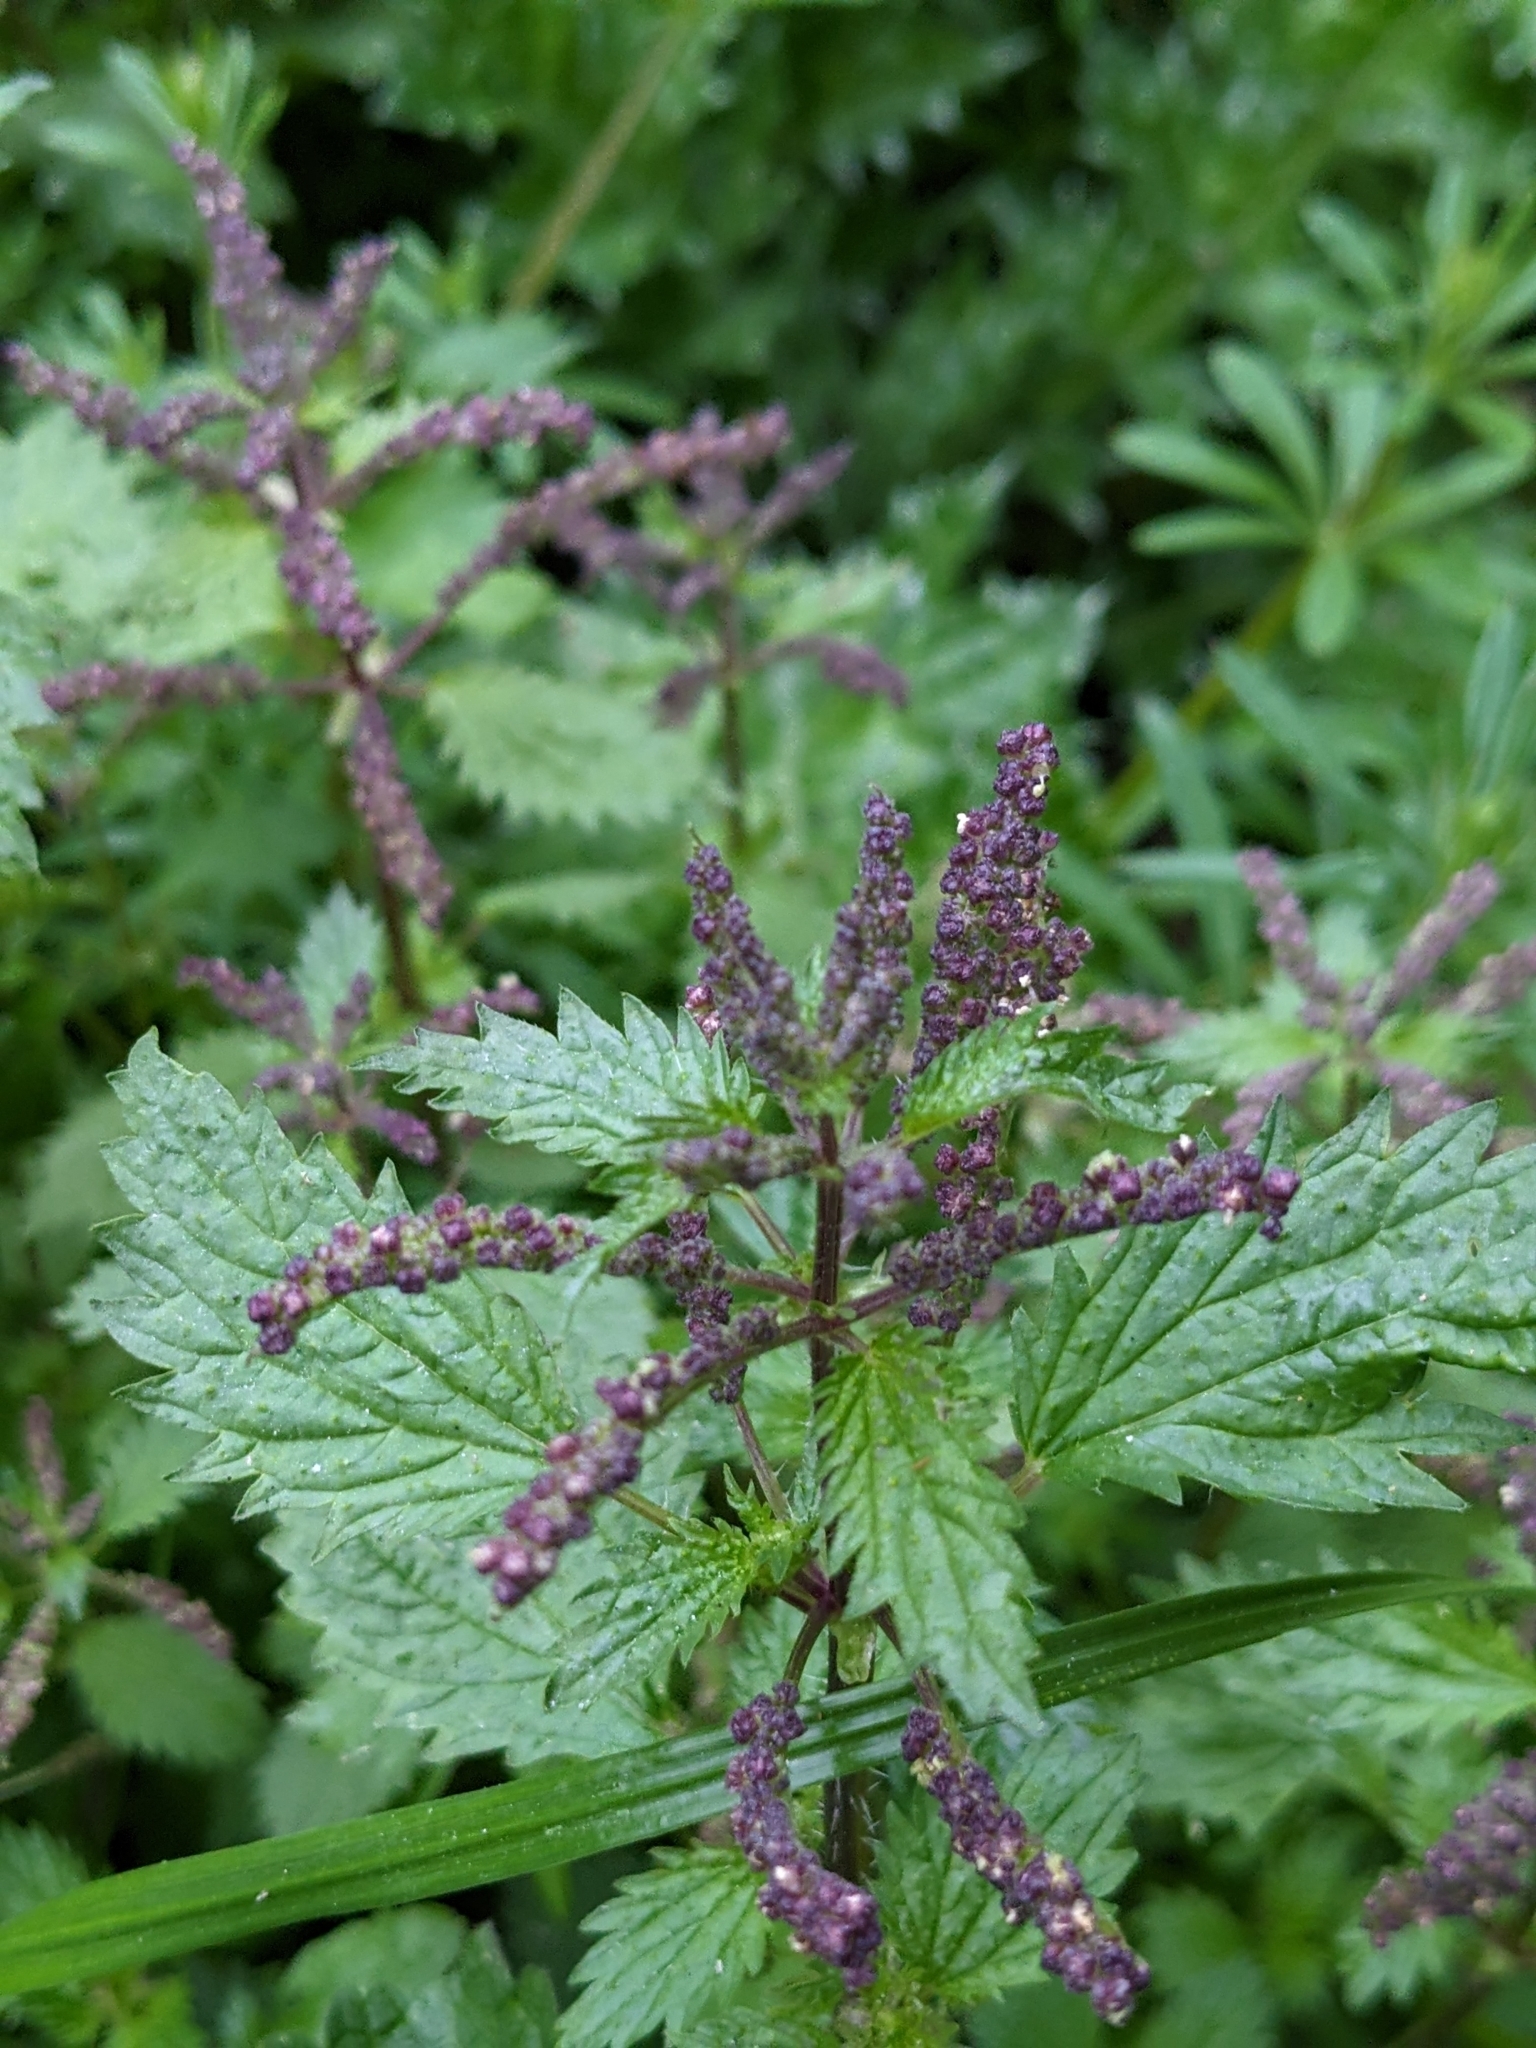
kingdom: Plantae
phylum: Tracheophyta
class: Magnoliopsida
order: Rosales
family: Urticaceae
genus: Urtica
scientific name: Urtica membranacea
